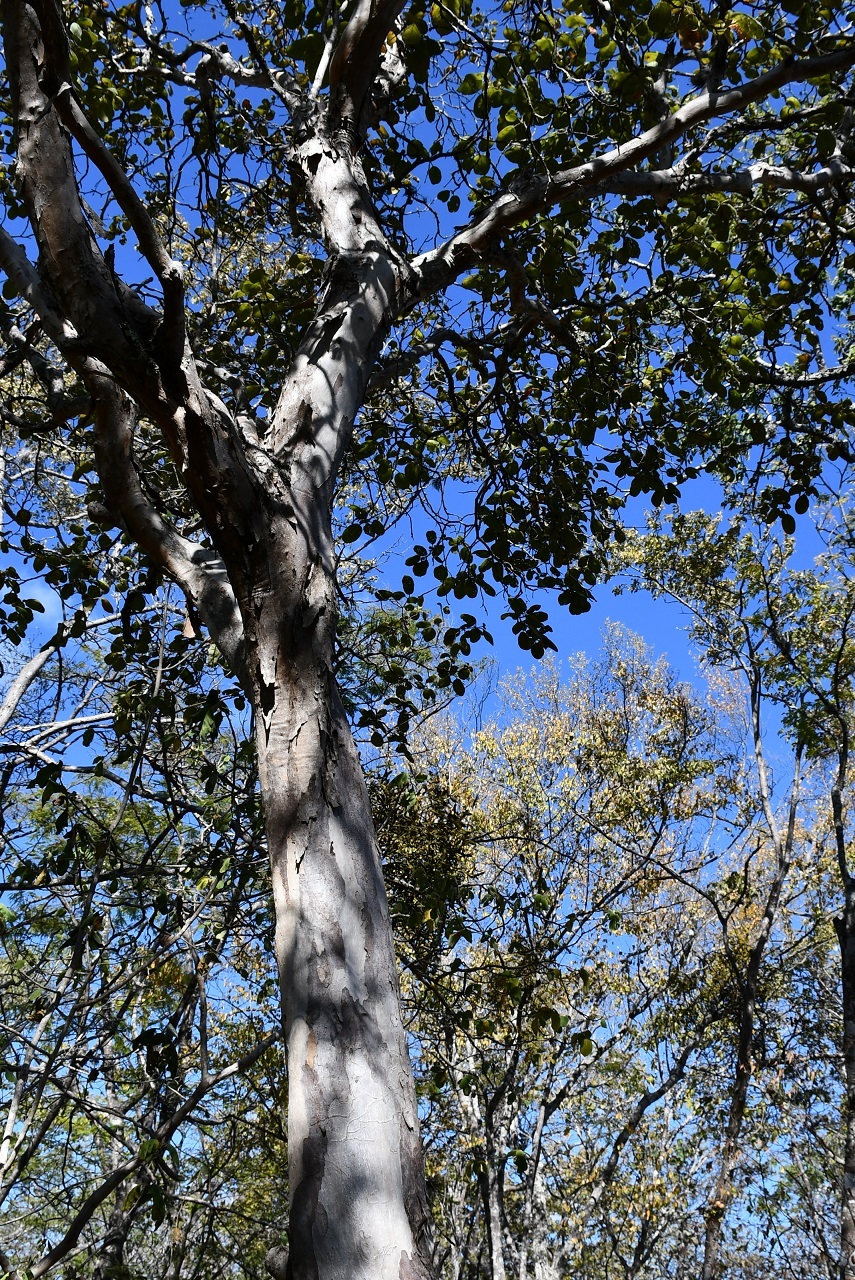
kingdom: Plantae
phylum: Tracheophyta
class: Magnoliopsida
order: Myrtales
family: Onagraceae
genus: Hauya
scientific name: Hauya elegans
